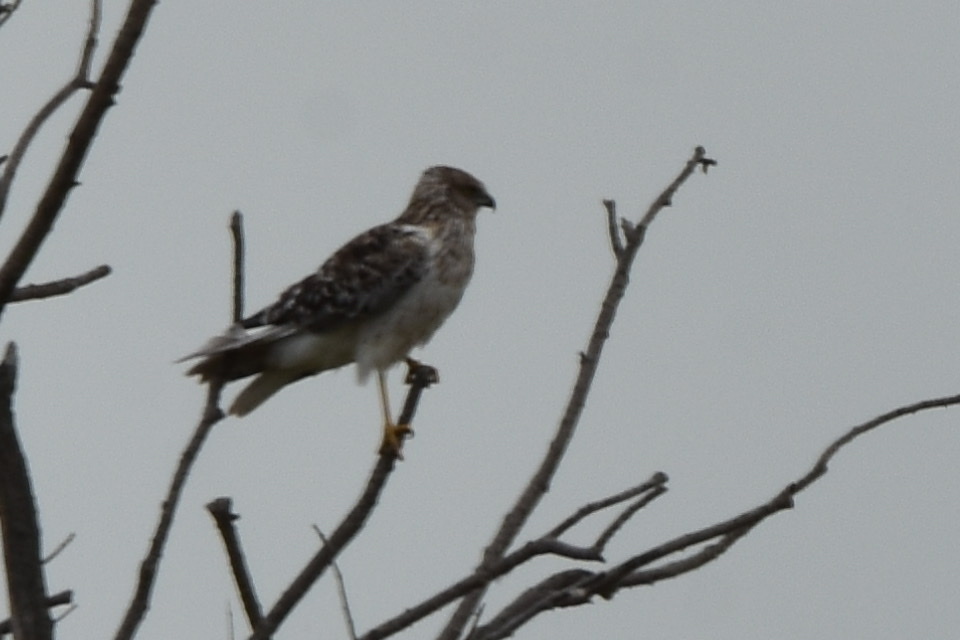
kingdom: Animalia
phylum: Chordata
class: Aves
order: Accipitriformes
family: Accipitridae
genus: Circus
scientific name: Circus spilonotus
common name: Eastern marsh-harrier
